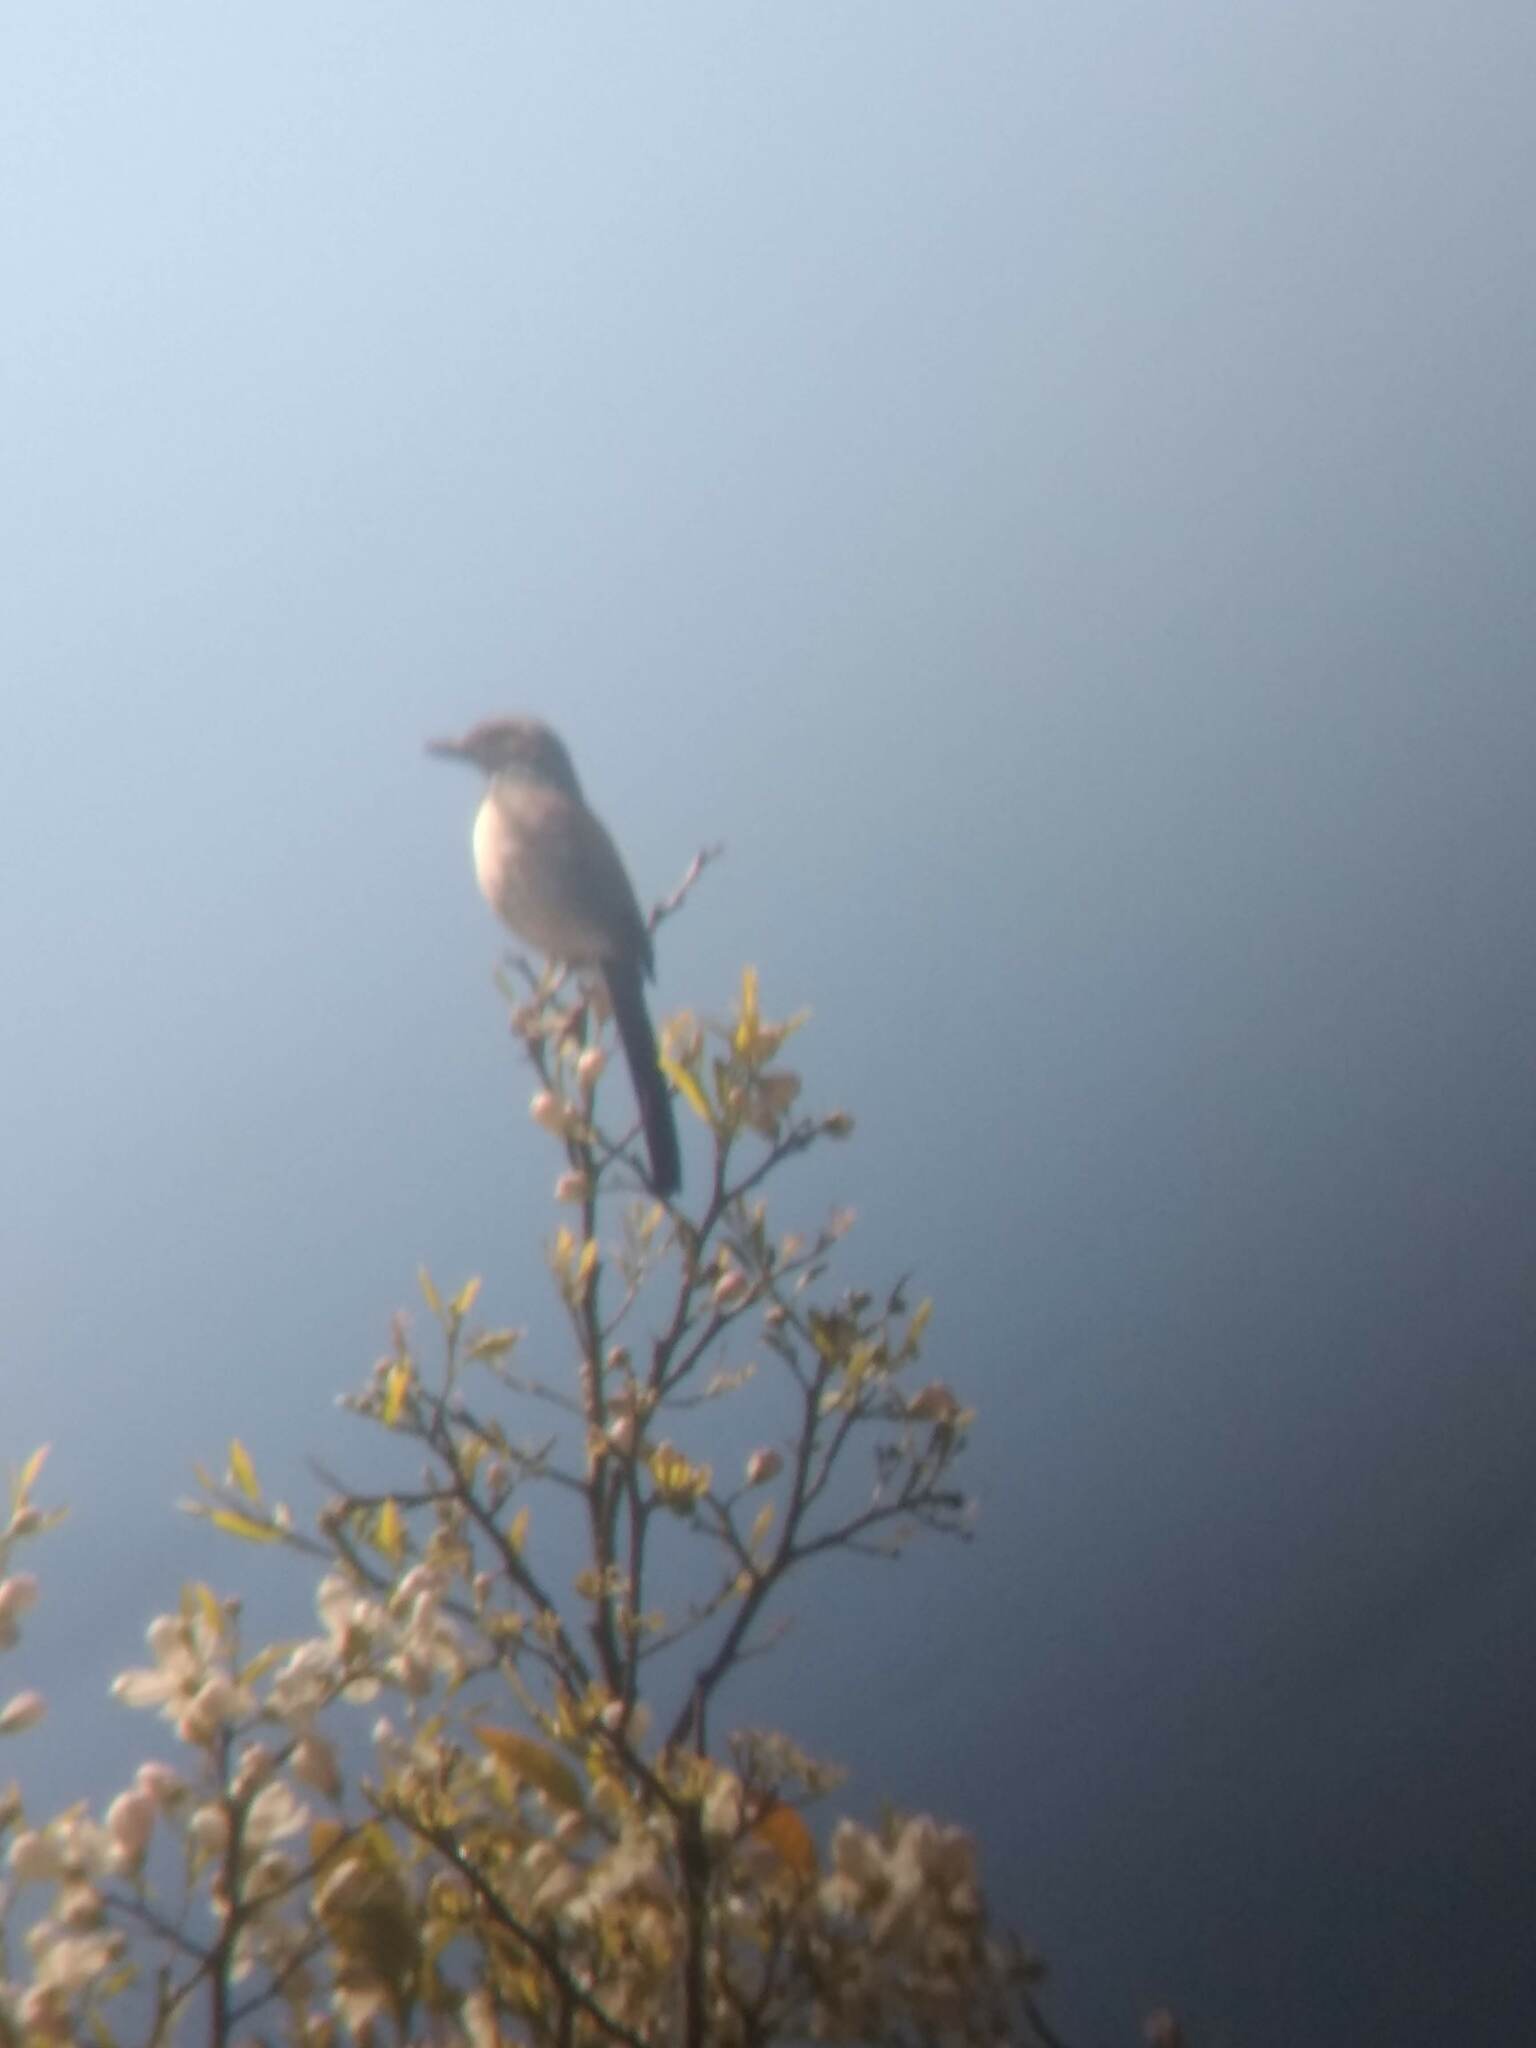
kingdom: Animalia
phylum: Chordata
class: Aves
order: Passeriformes
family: Corvidae
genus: Aphelocoma
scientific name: Aphelocoma californica
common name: California scrub-jay
